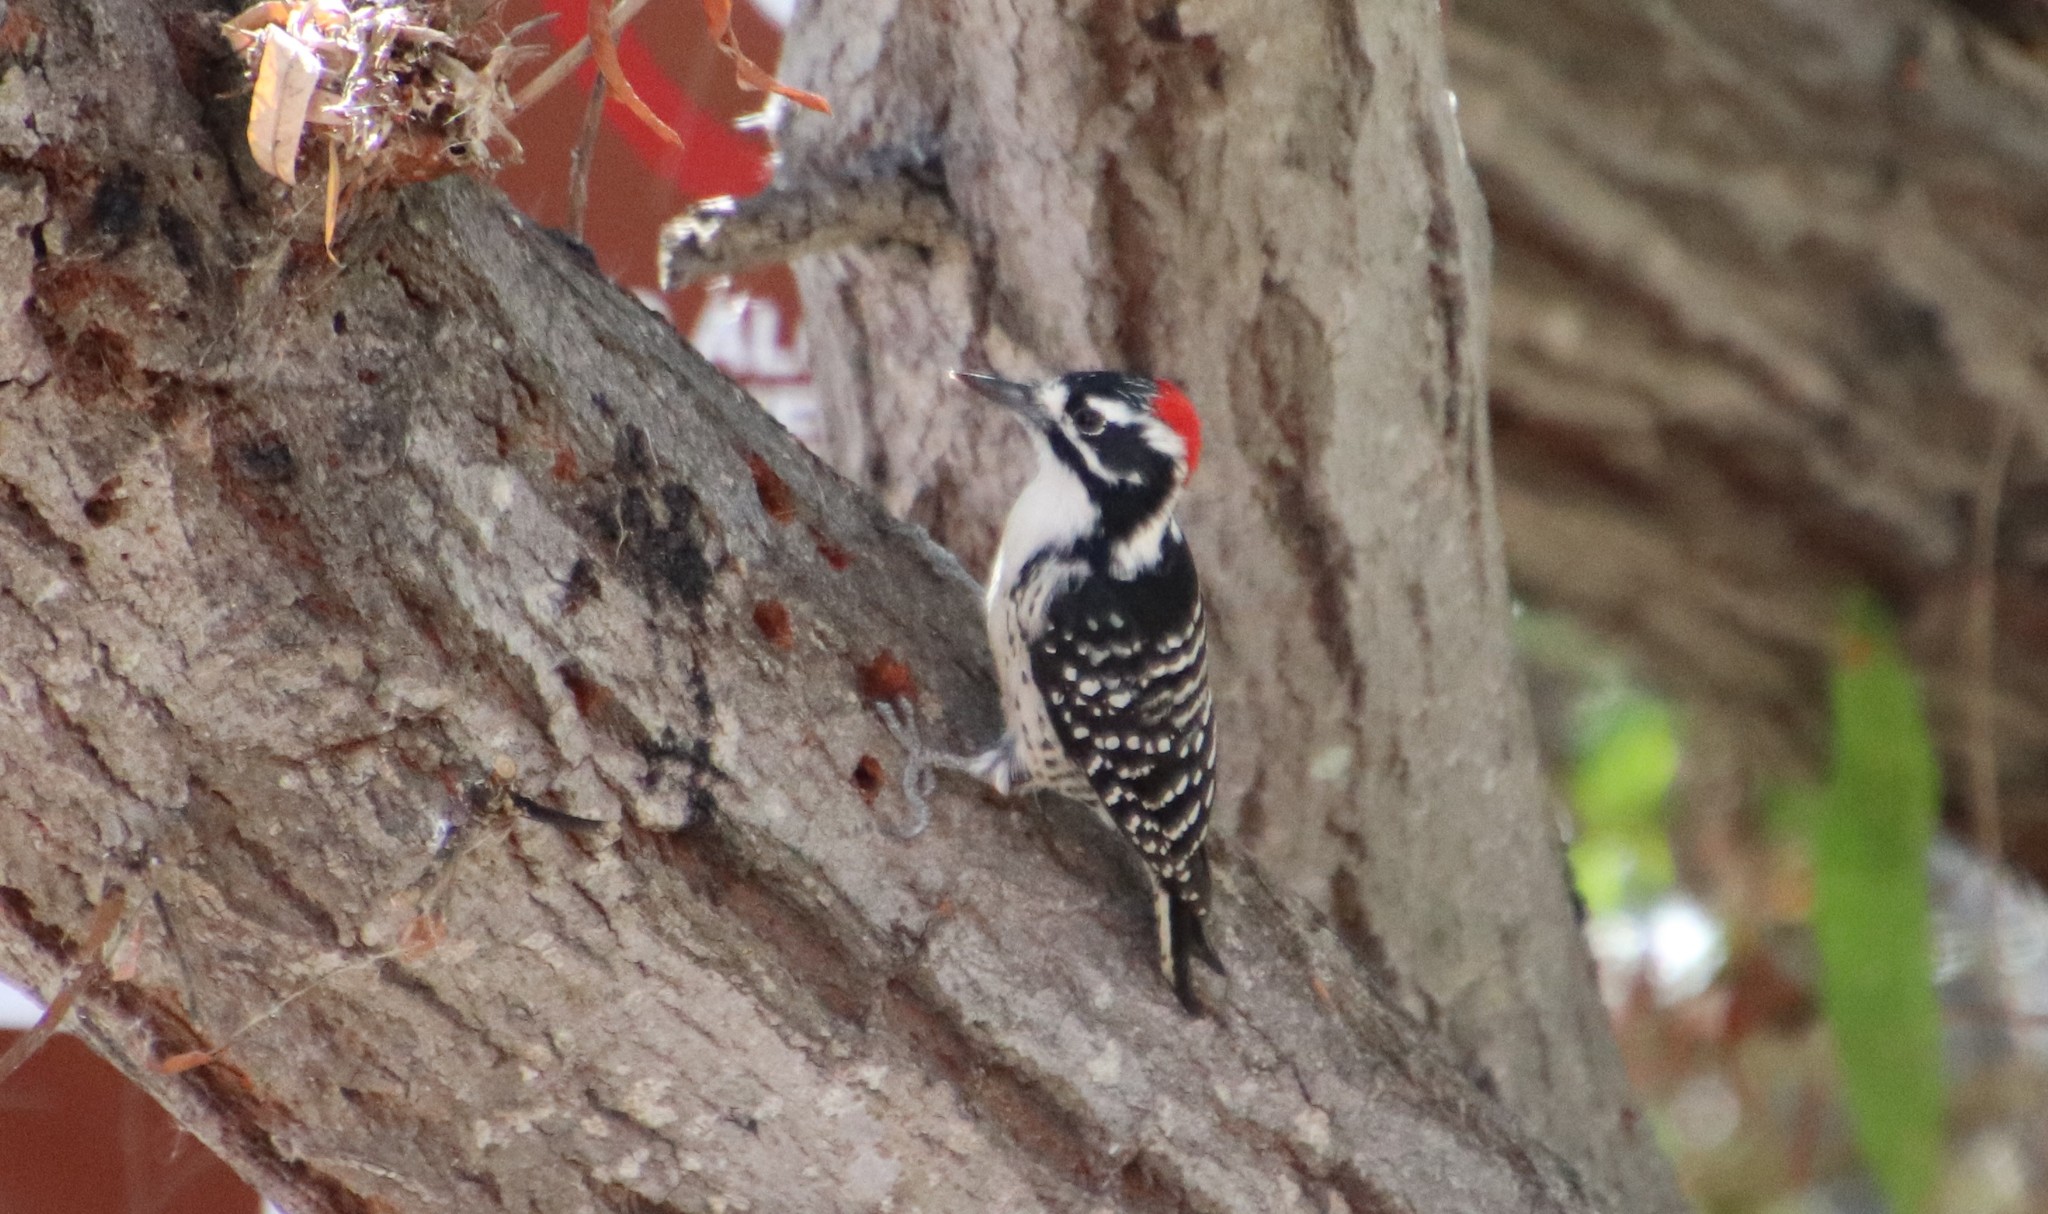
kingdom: Animalia
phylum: Chordata
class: Aves
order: Piciformes
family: Picidae
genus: Dryobates
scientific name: Dryobates nuttallii
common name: Nuttall's woodpecker
